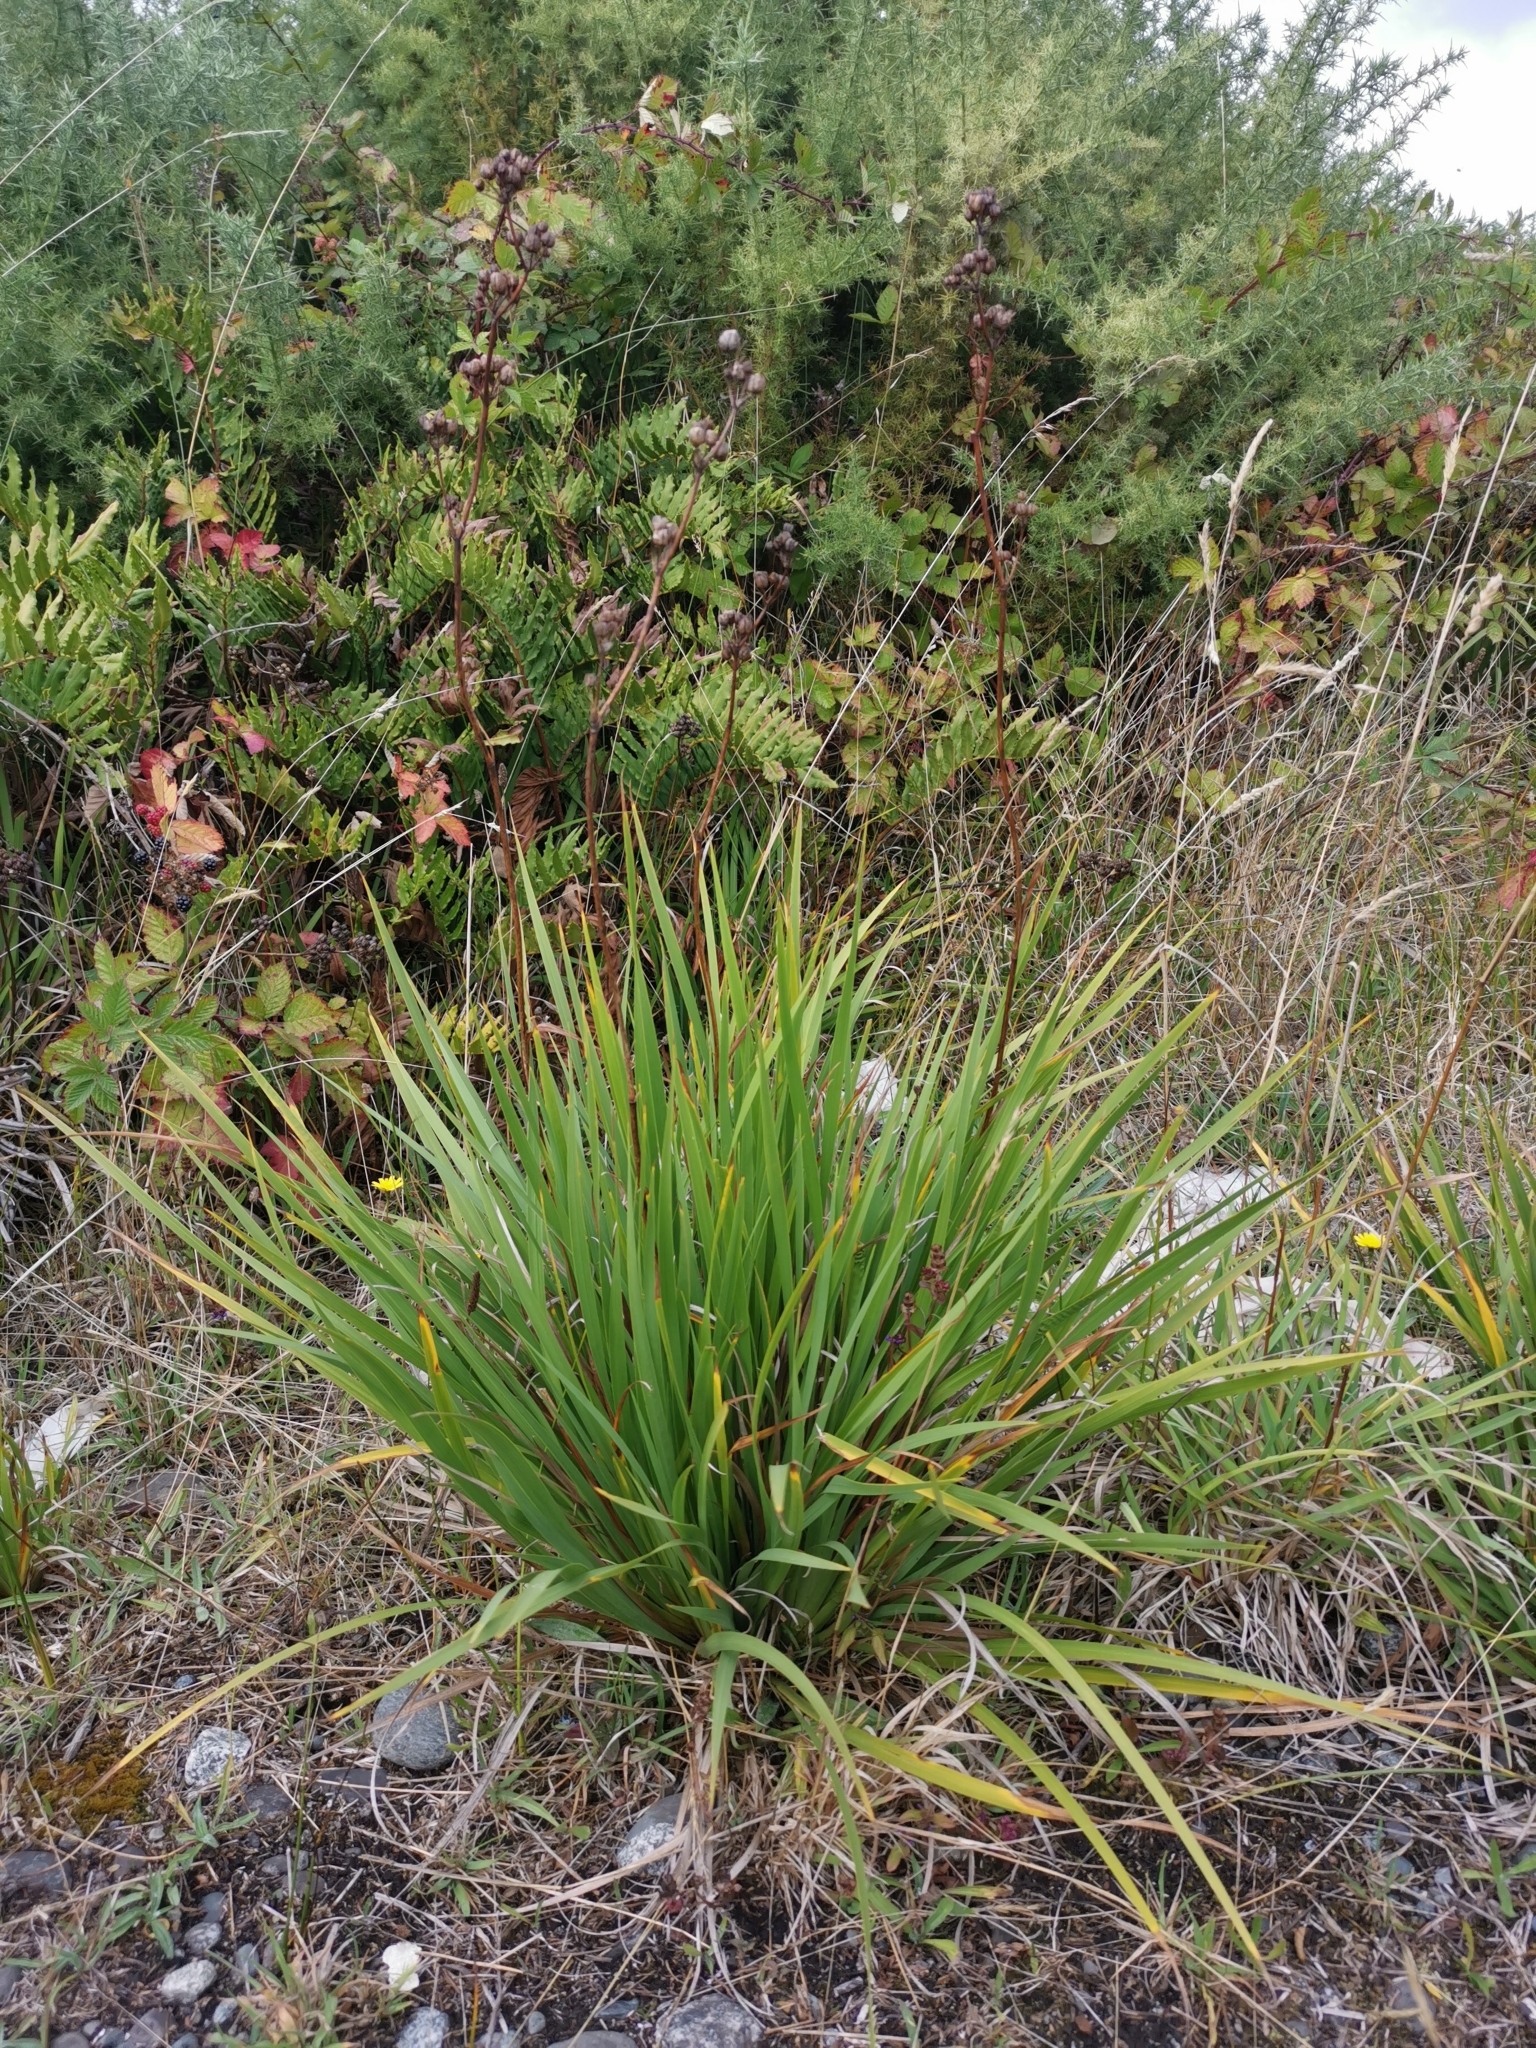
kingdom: Plantae
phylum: Tracheophyta
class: Liliopsida
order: Asparagales
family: Iridaceae
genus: Libertia
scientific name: Libertia chilensis
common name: Satin flower
